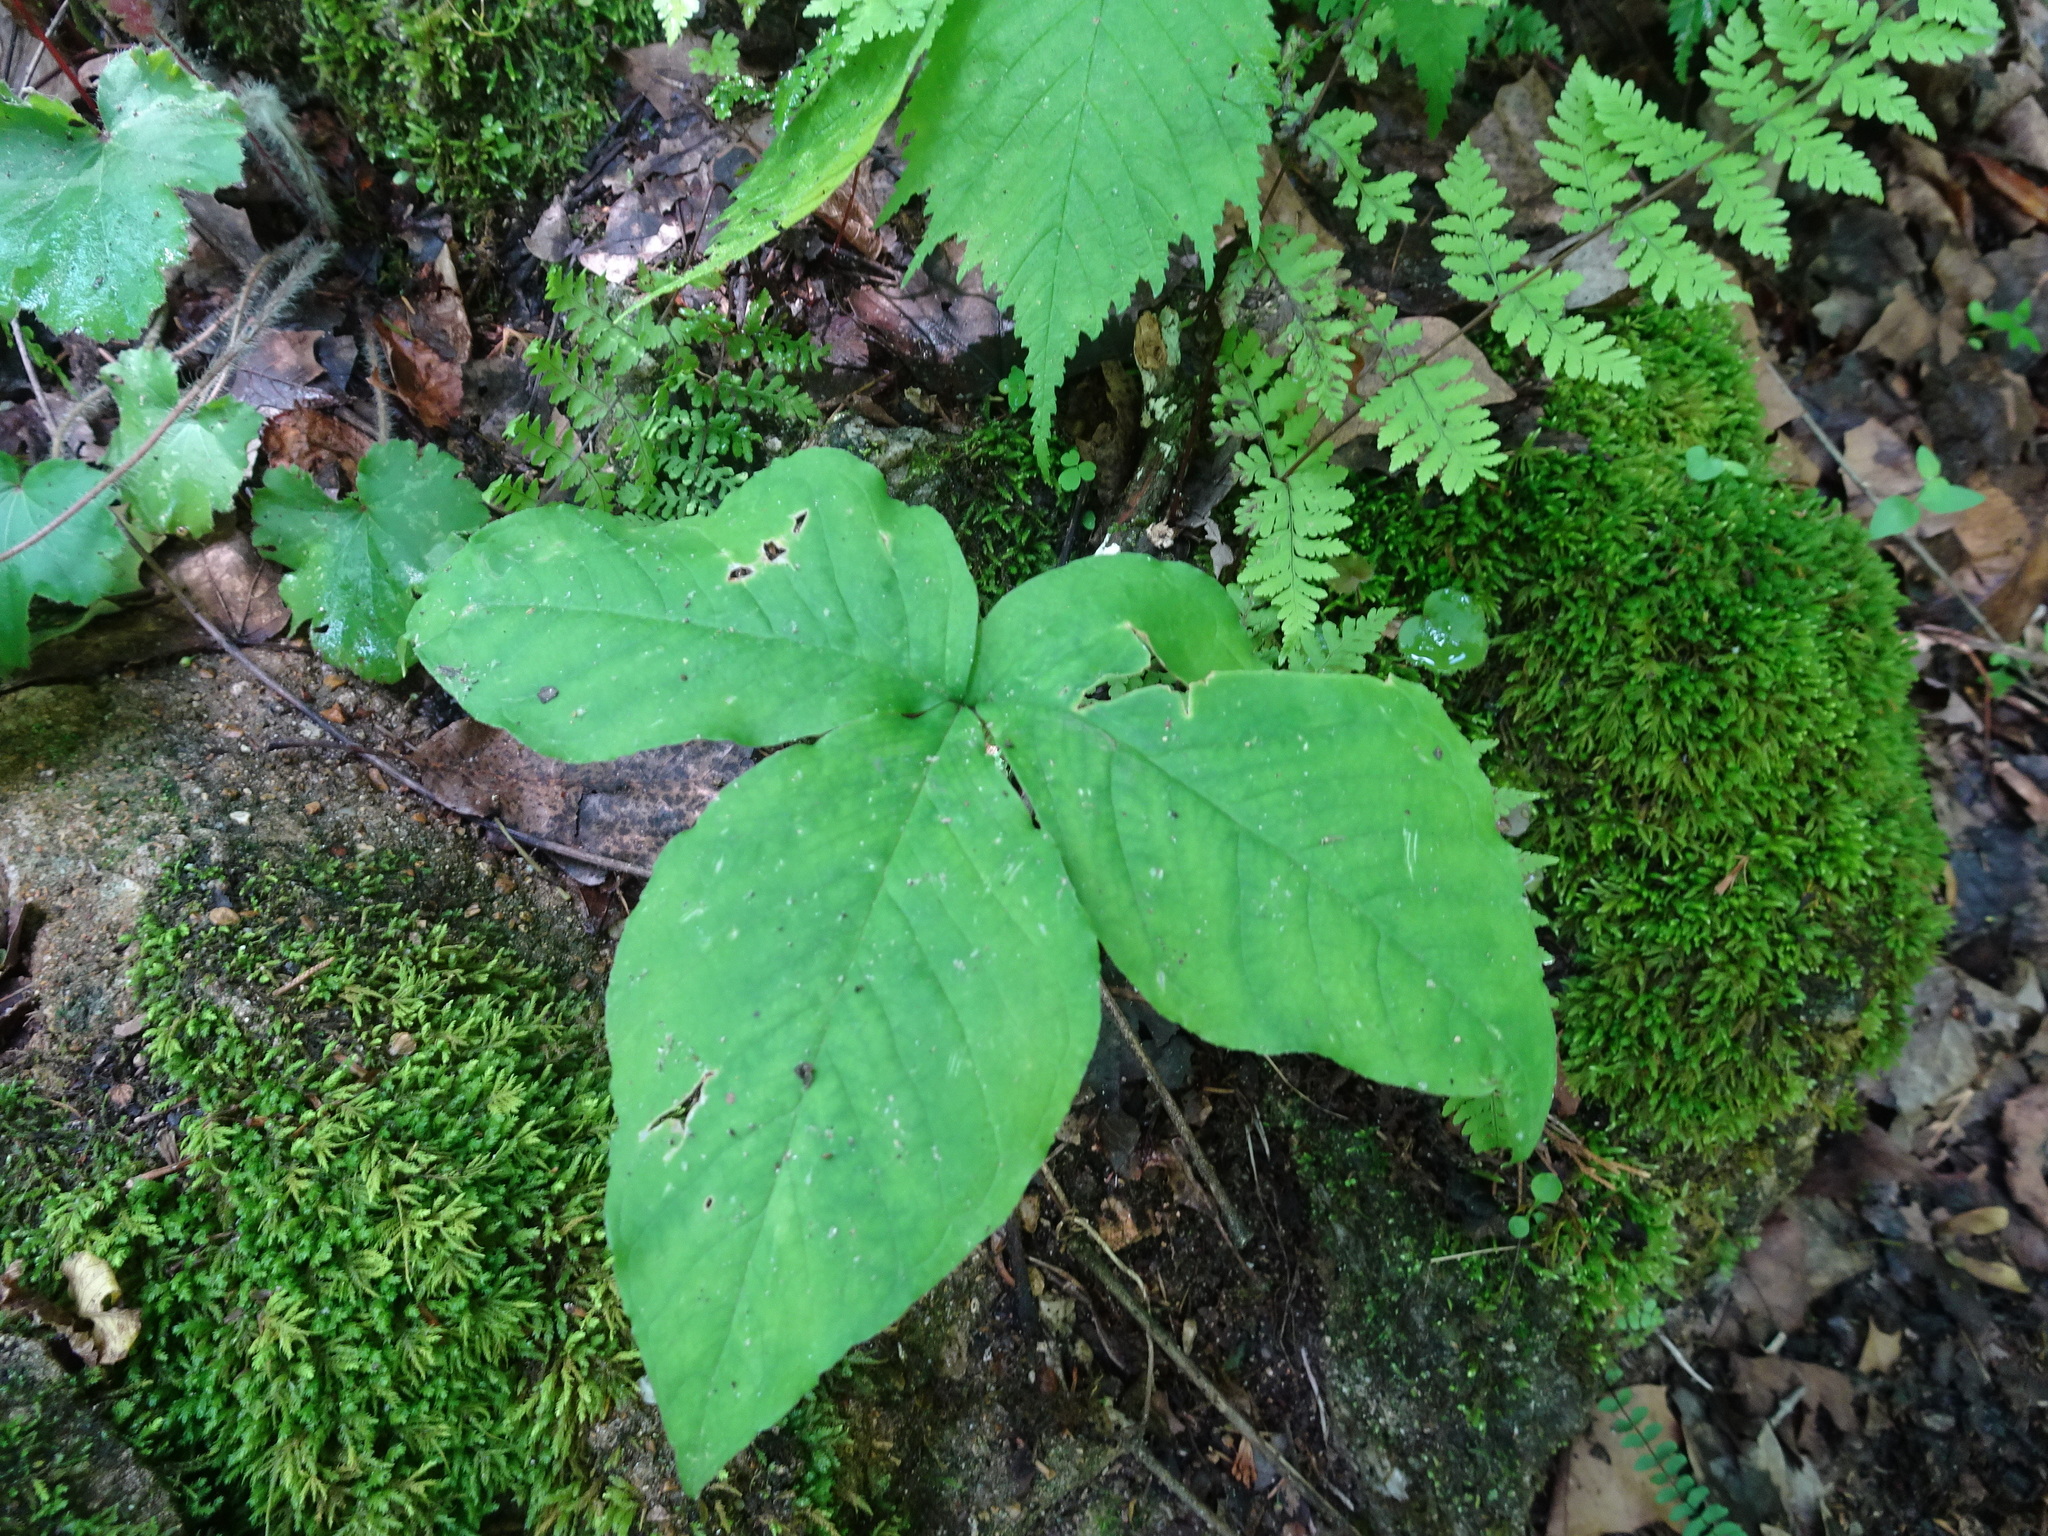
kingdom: Plantae
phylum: Tracheophyta
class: Liliopsida
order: Alismatales
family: Araceae
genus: Arisaema
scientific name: Arisaema triphyllum
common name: Jack-in-the-pulpit
